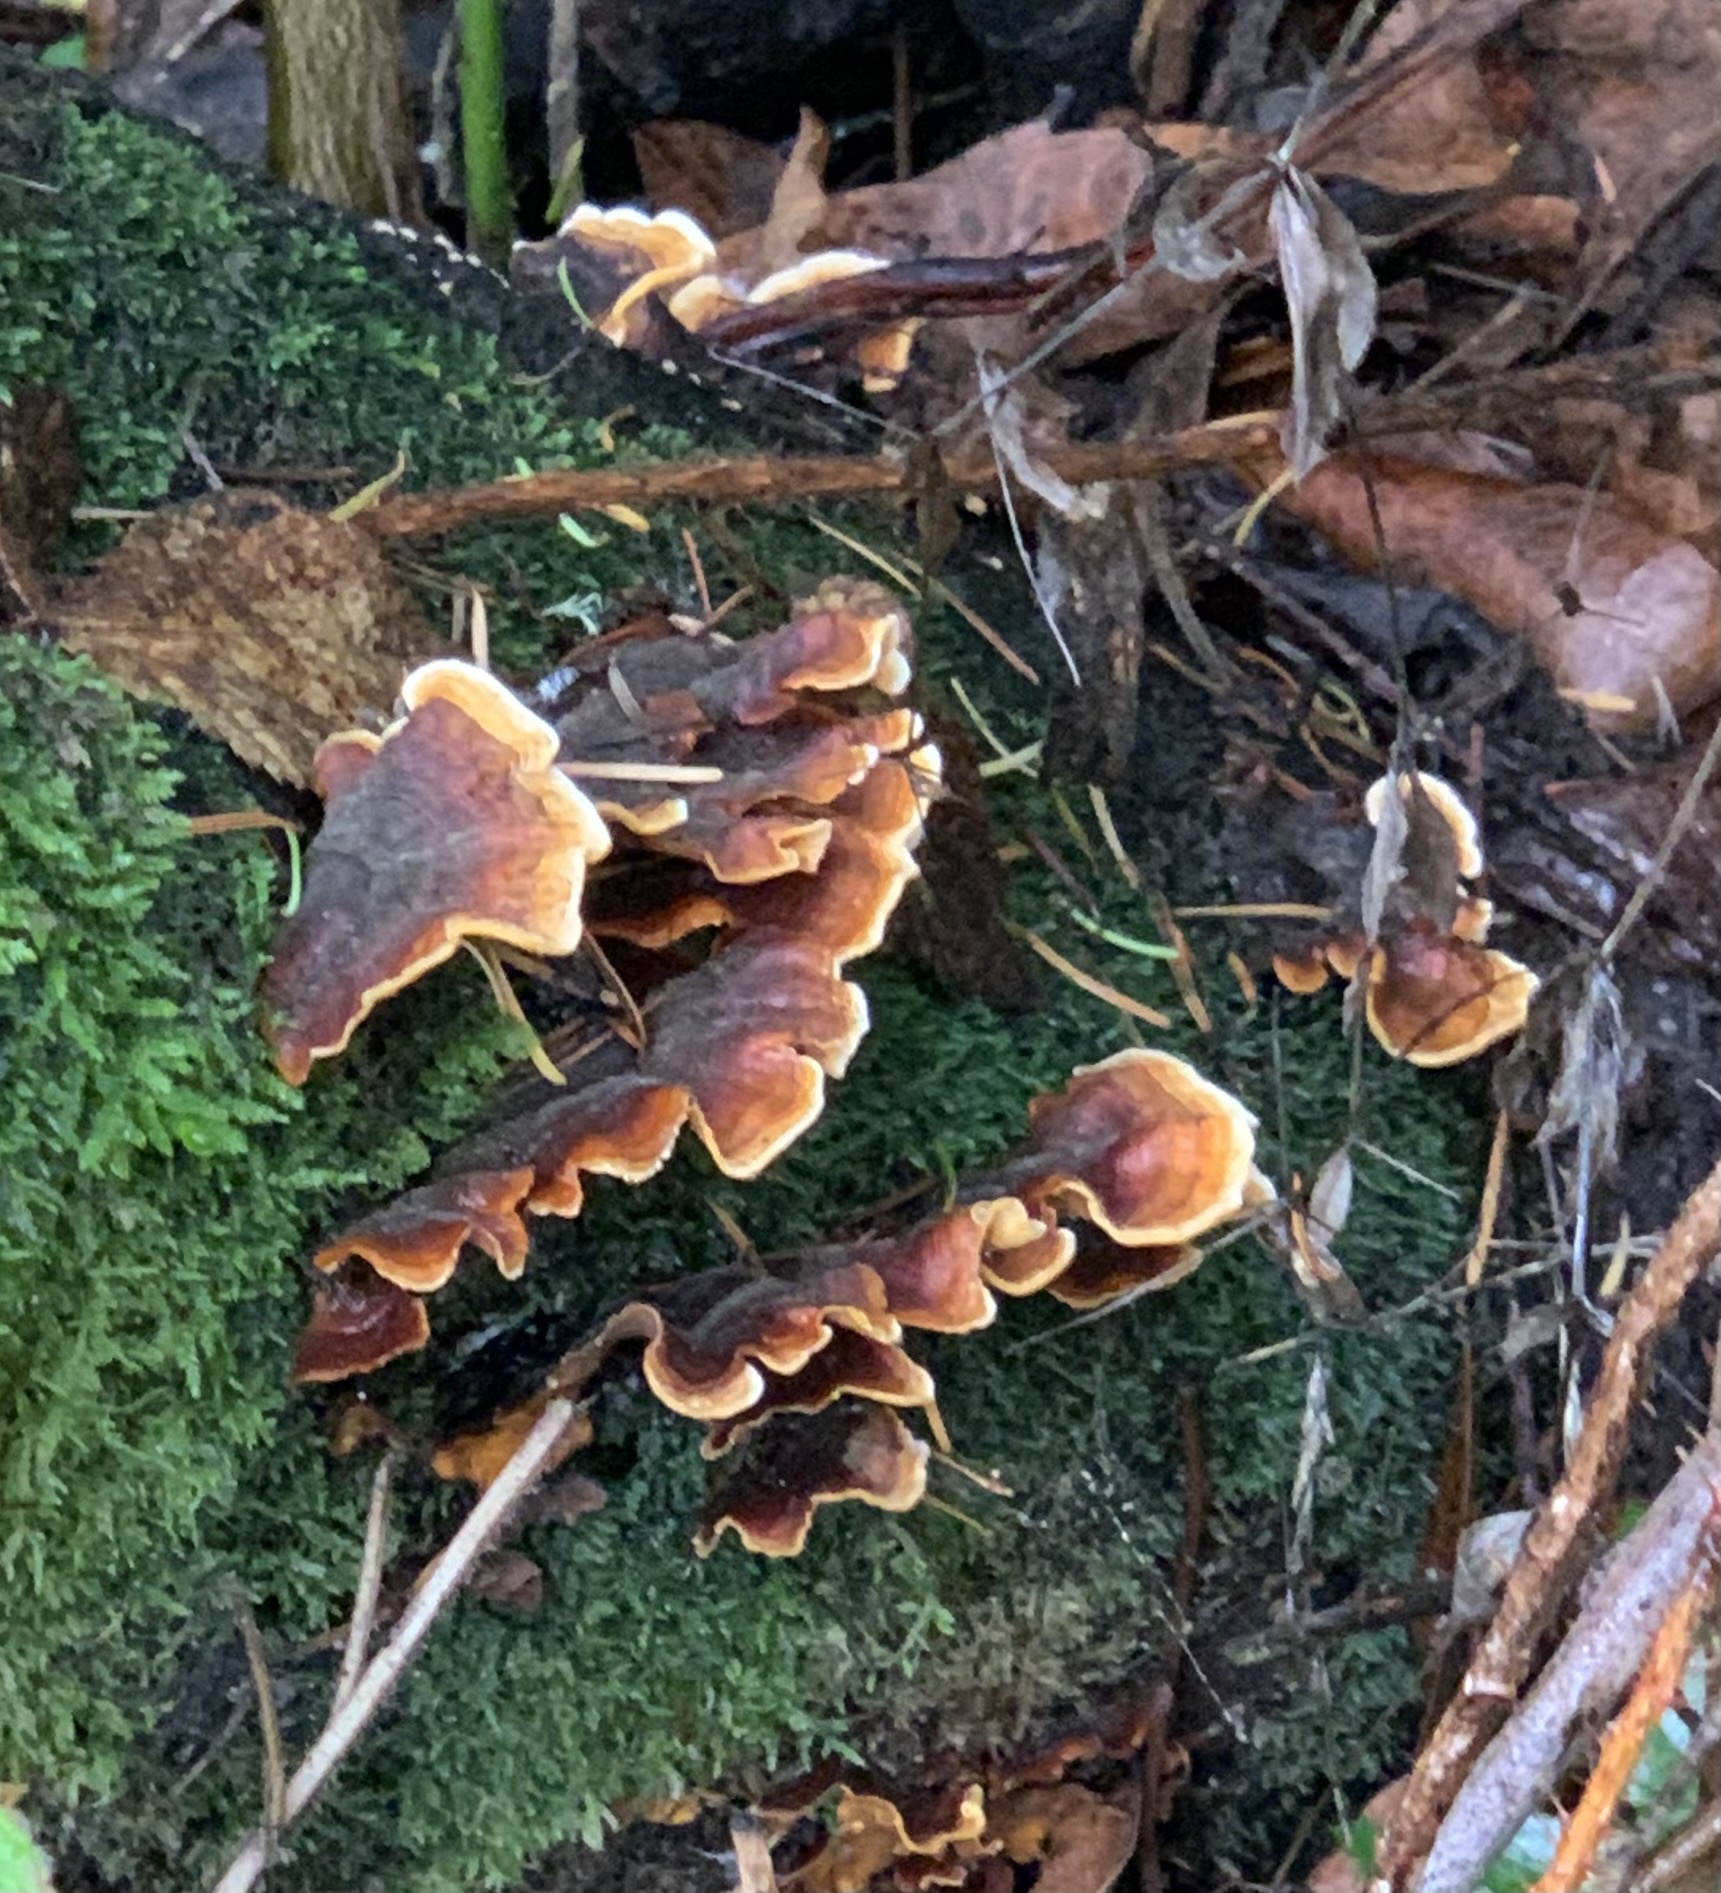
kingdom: Fungi
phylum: Basidiomycota
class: Agaricomycetes
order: Russulales
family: Stereaceae
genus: Stereum
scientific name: Stereum hirsutum
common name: Hairy curtain crust
